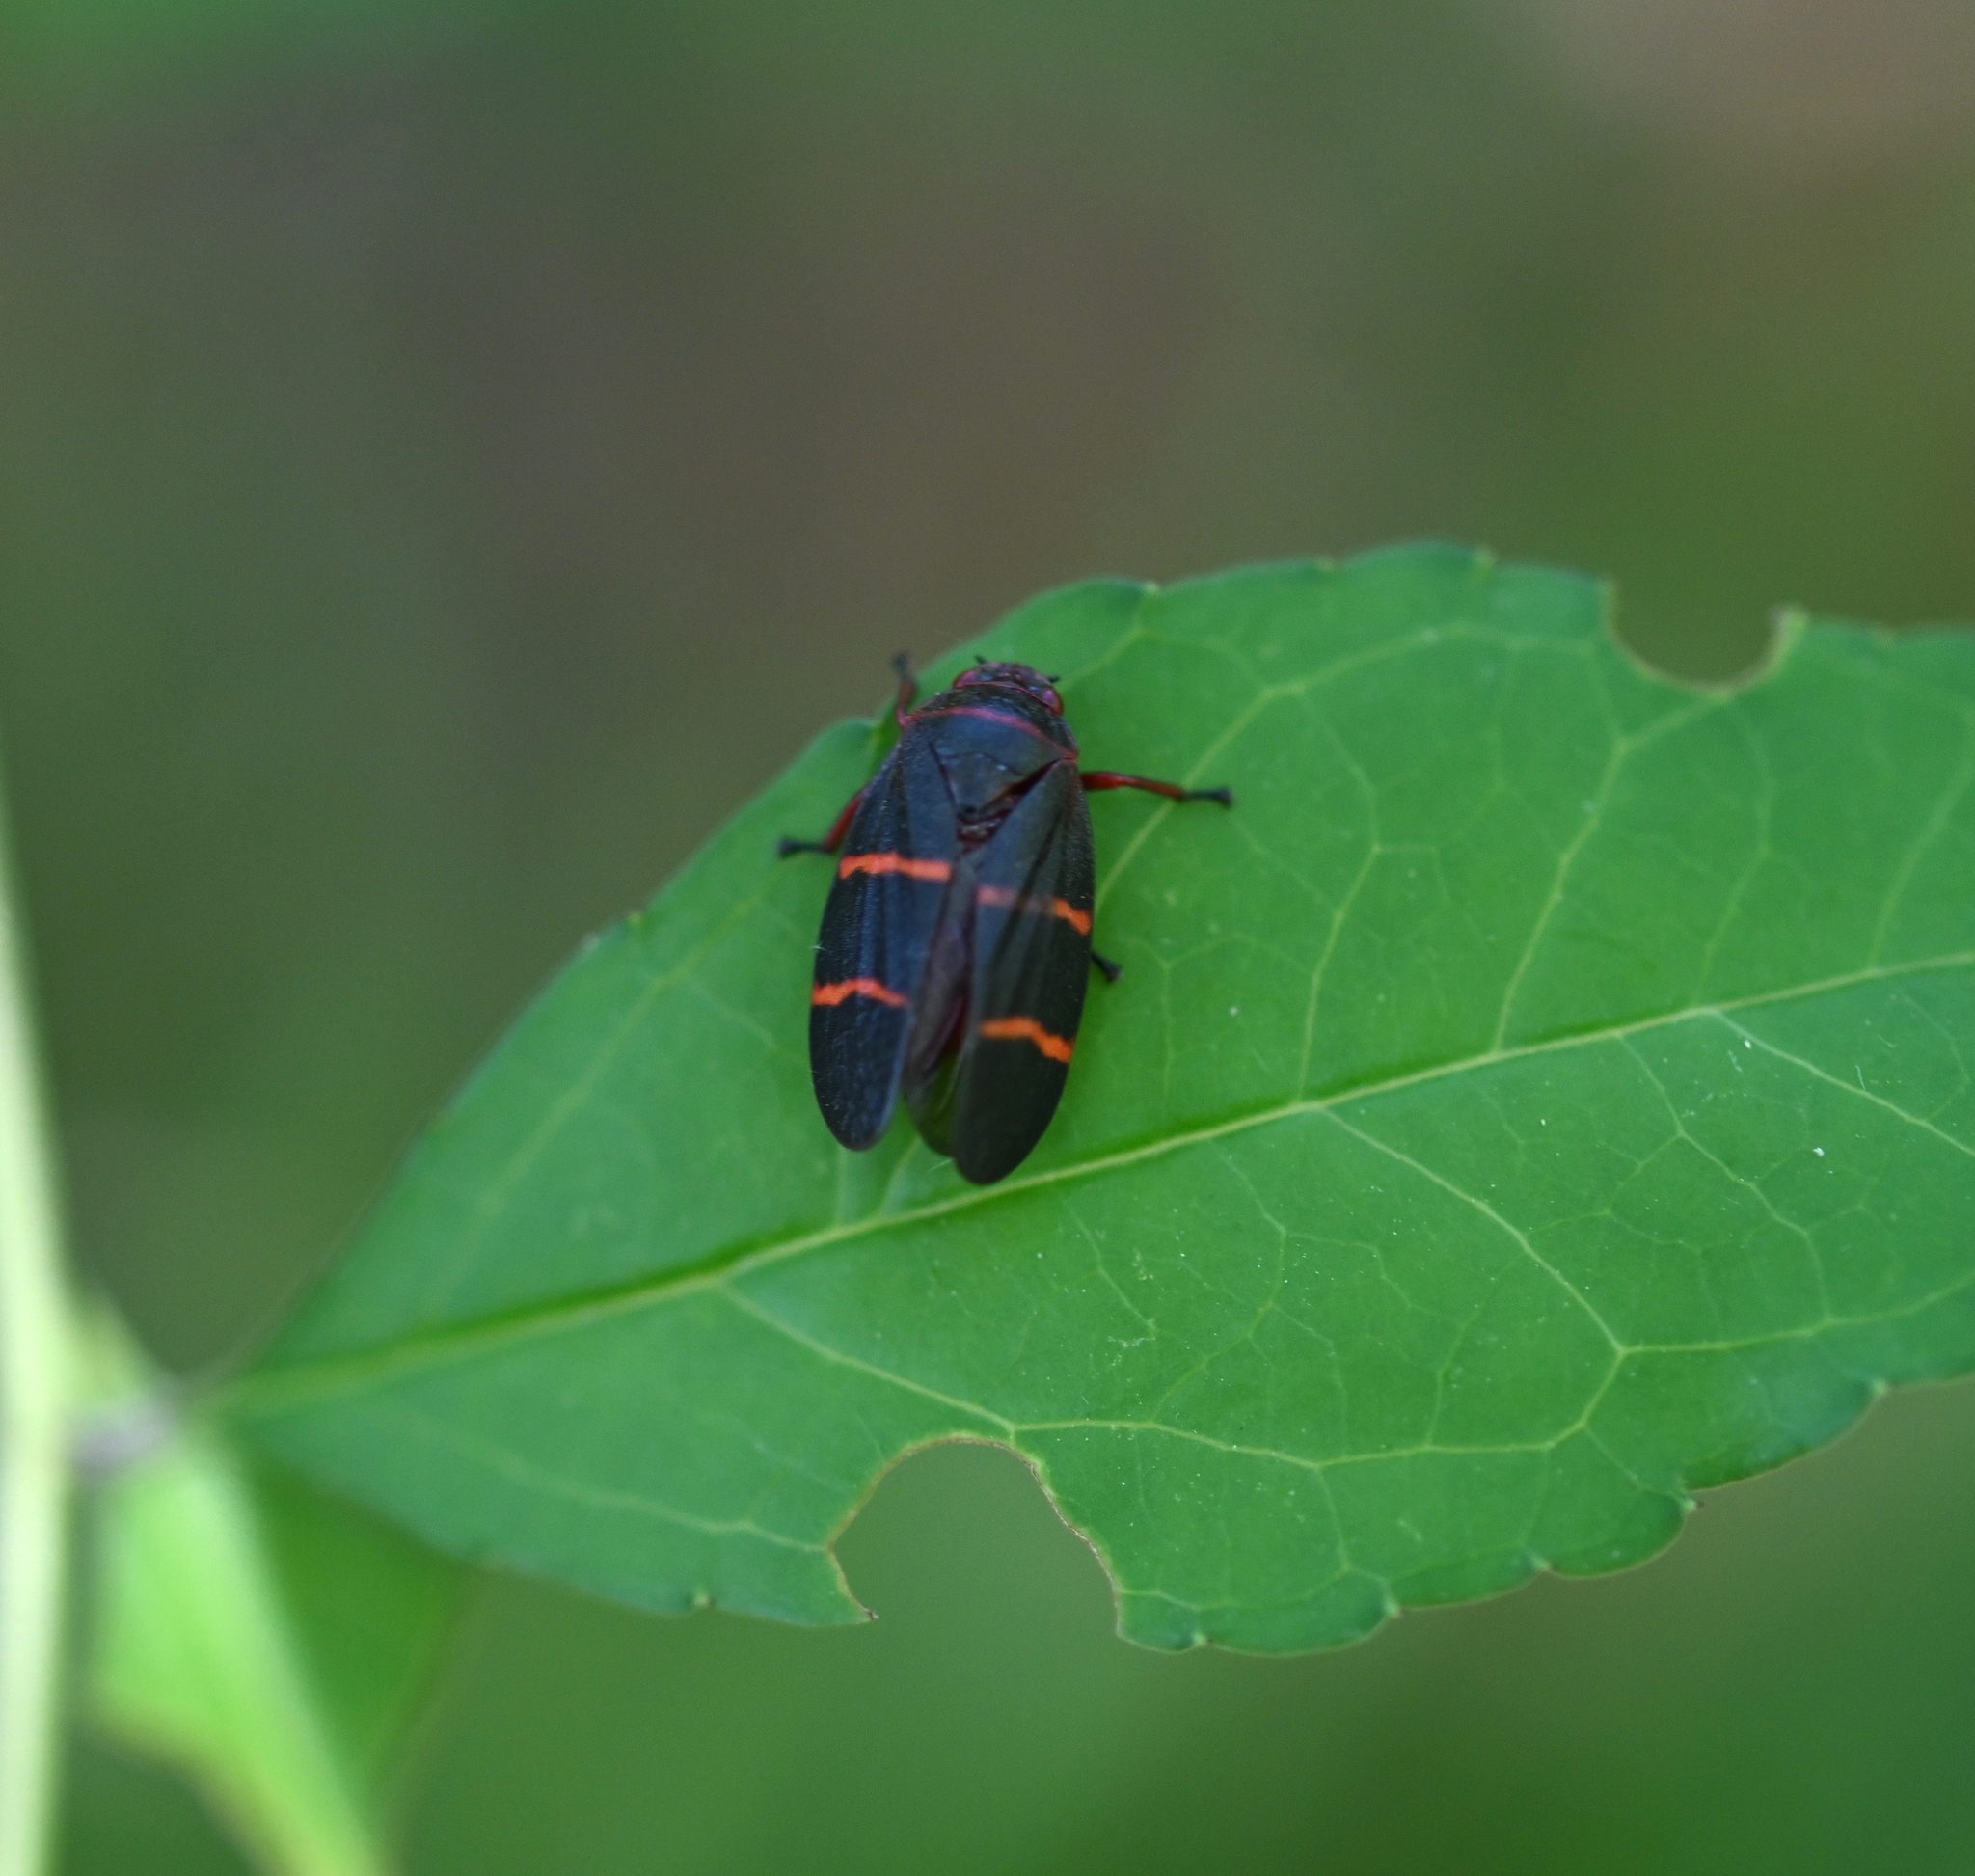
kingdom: Animalia
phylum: Arthropoda
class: Insecta
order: Hemiptera
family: Cercopidae
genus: Prosapia
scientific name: Prosapia bicincta
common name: Twolined spittlebug
